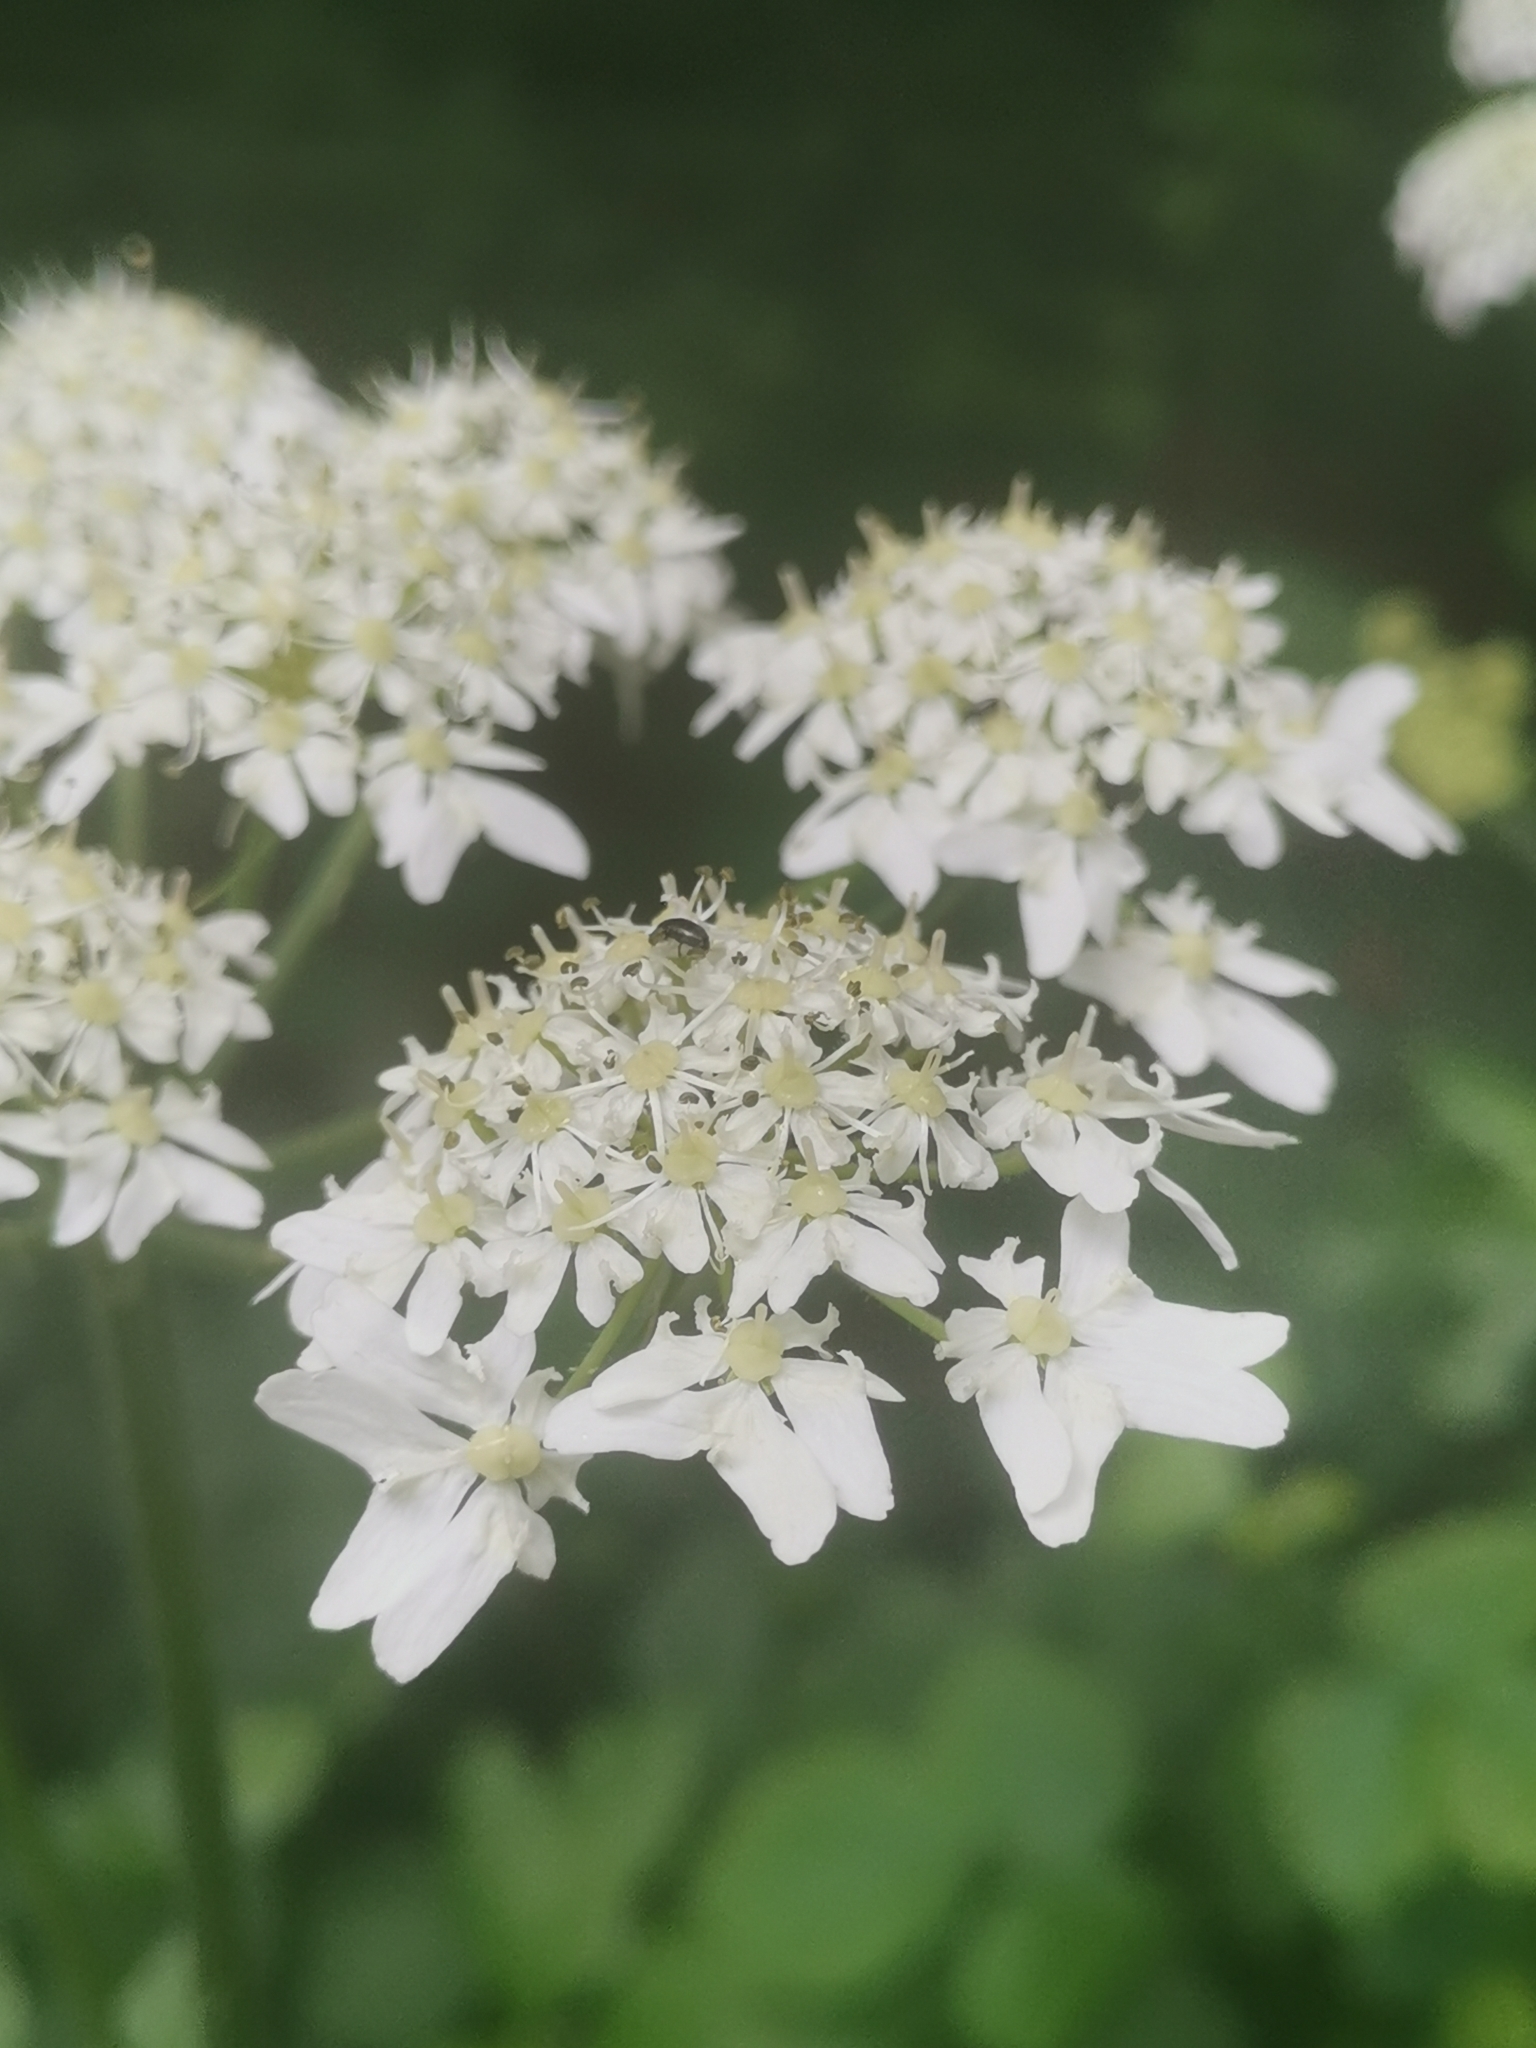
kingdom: Plantae
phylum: Tracheophyta
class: Magnoliopsida
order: Apiales
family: Apiaceae
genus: Heracleum
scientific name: Heracleum sphondylium
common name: Hogweed
